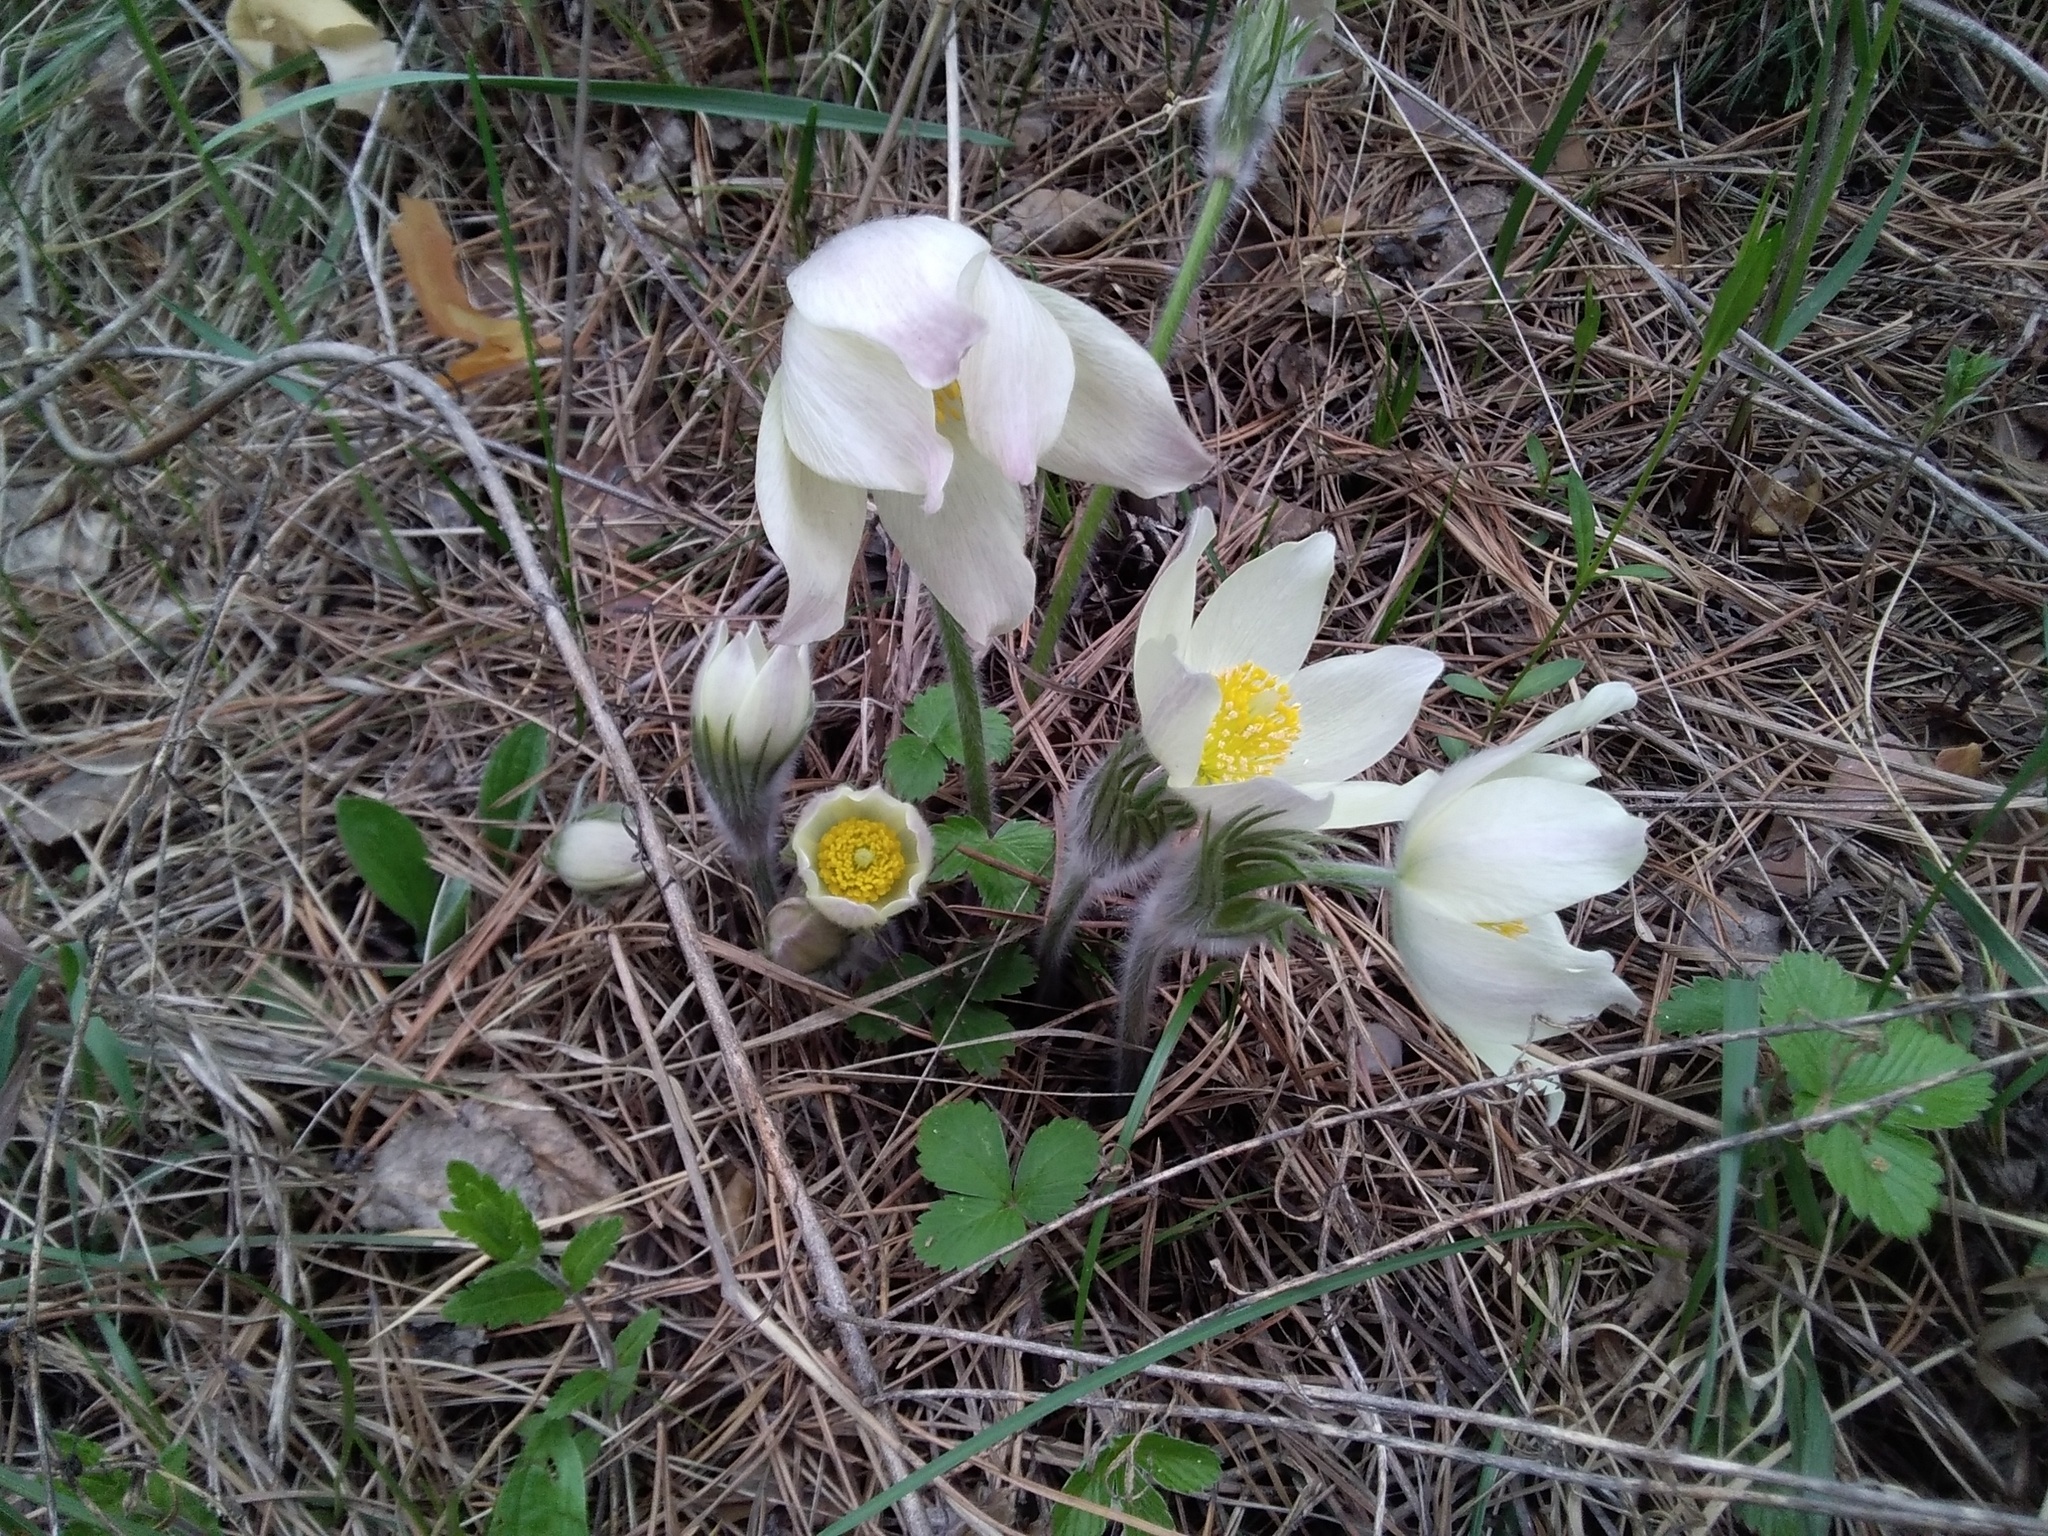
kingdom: Plantae
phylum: Tracheophyta
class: Magnoliopsida
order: Ranunculales
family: Ranunculaceae
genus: Pulsatilla
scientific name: Pulsatilla patens
